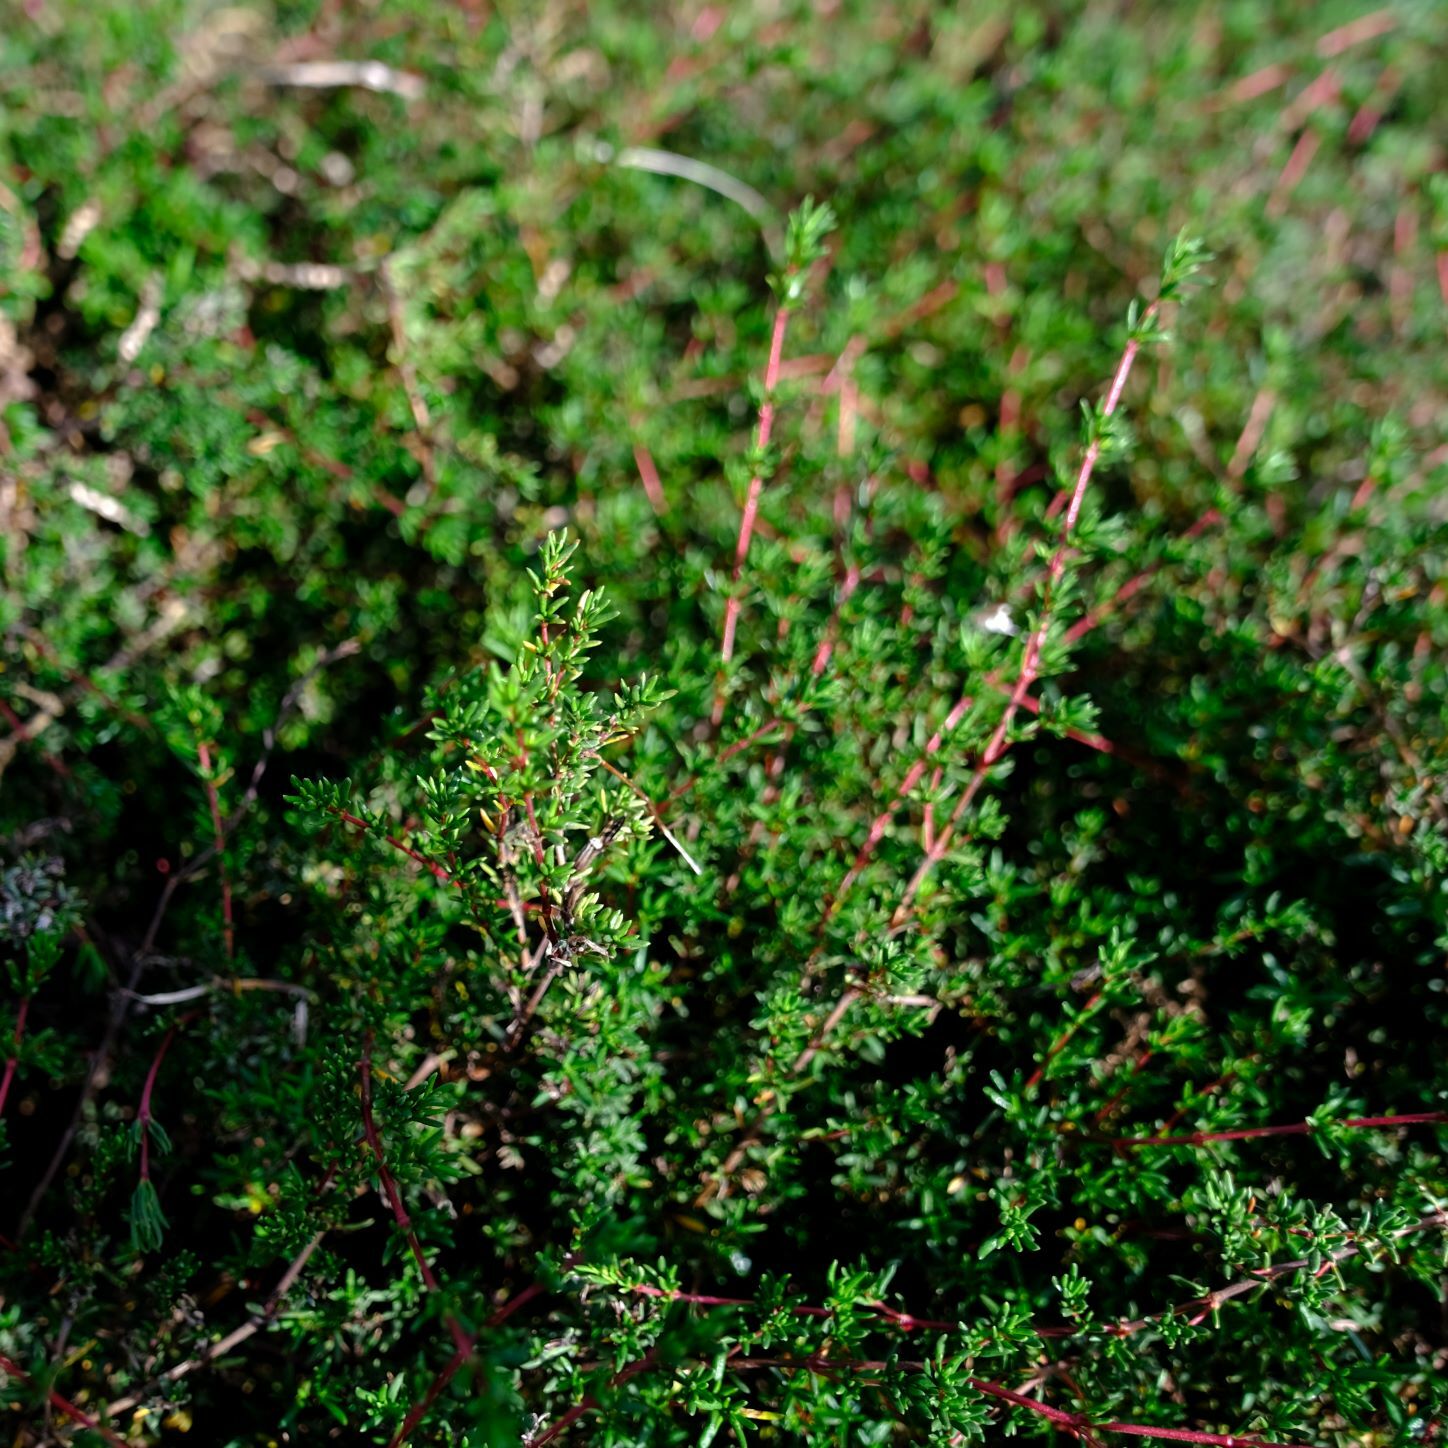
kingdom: Plantae
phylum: Tracheophyta
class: Magnoliopsida
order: Caryophyllales
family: Frankeniaceae
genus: Frankenia
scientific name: Frankenia pauciflora
